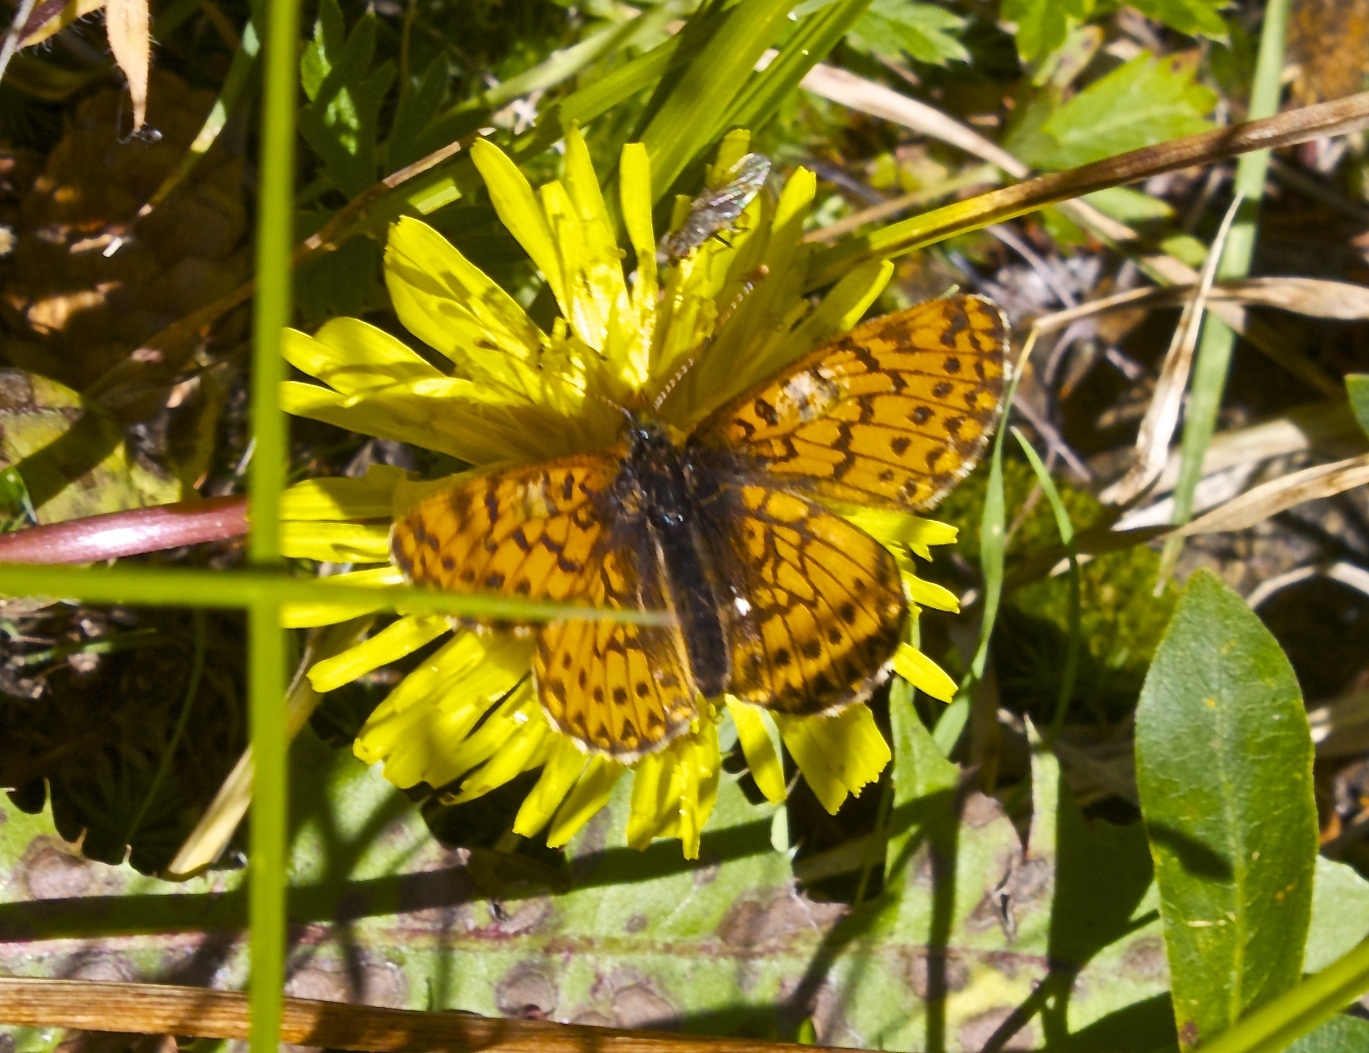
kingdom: Animalia
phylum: Arthropoda
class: Insecta
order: Lepidoptera
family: Nymphalidae
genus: Boloria
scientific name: Boloria chariclea
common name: Arctic fritillary
